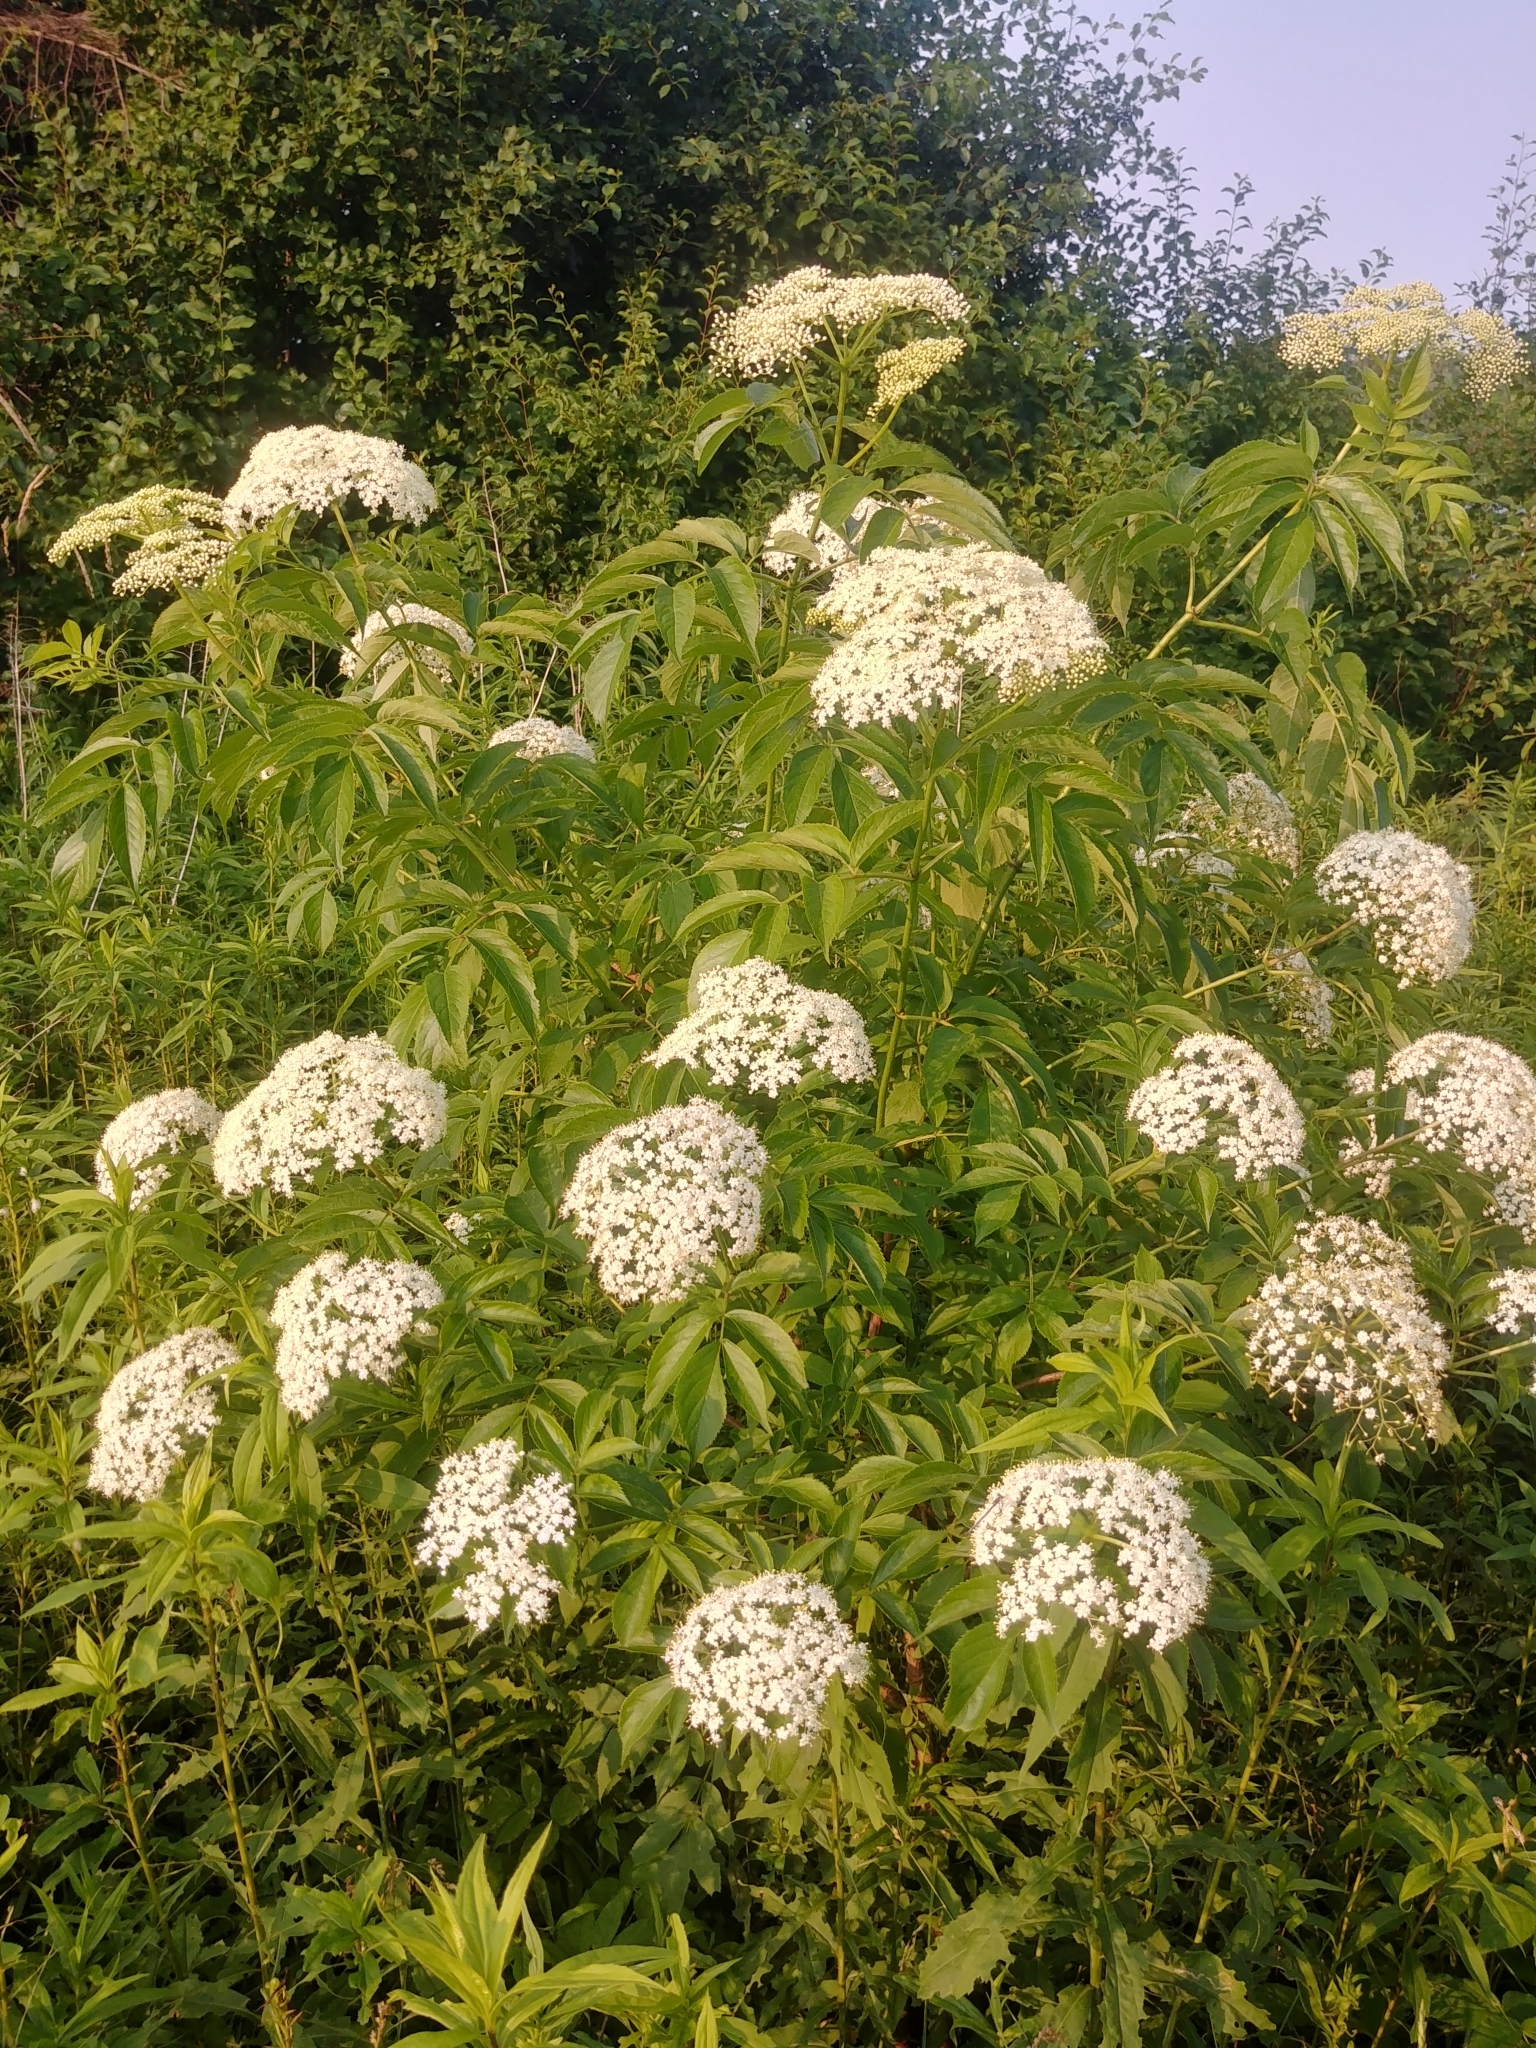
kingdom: Plantae
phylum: Tracheophyta
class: Magnoliopsida
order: Dipsacales
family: Viburnaceae
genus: Sambucus
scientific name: Sambucus canadensis
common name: American elder
